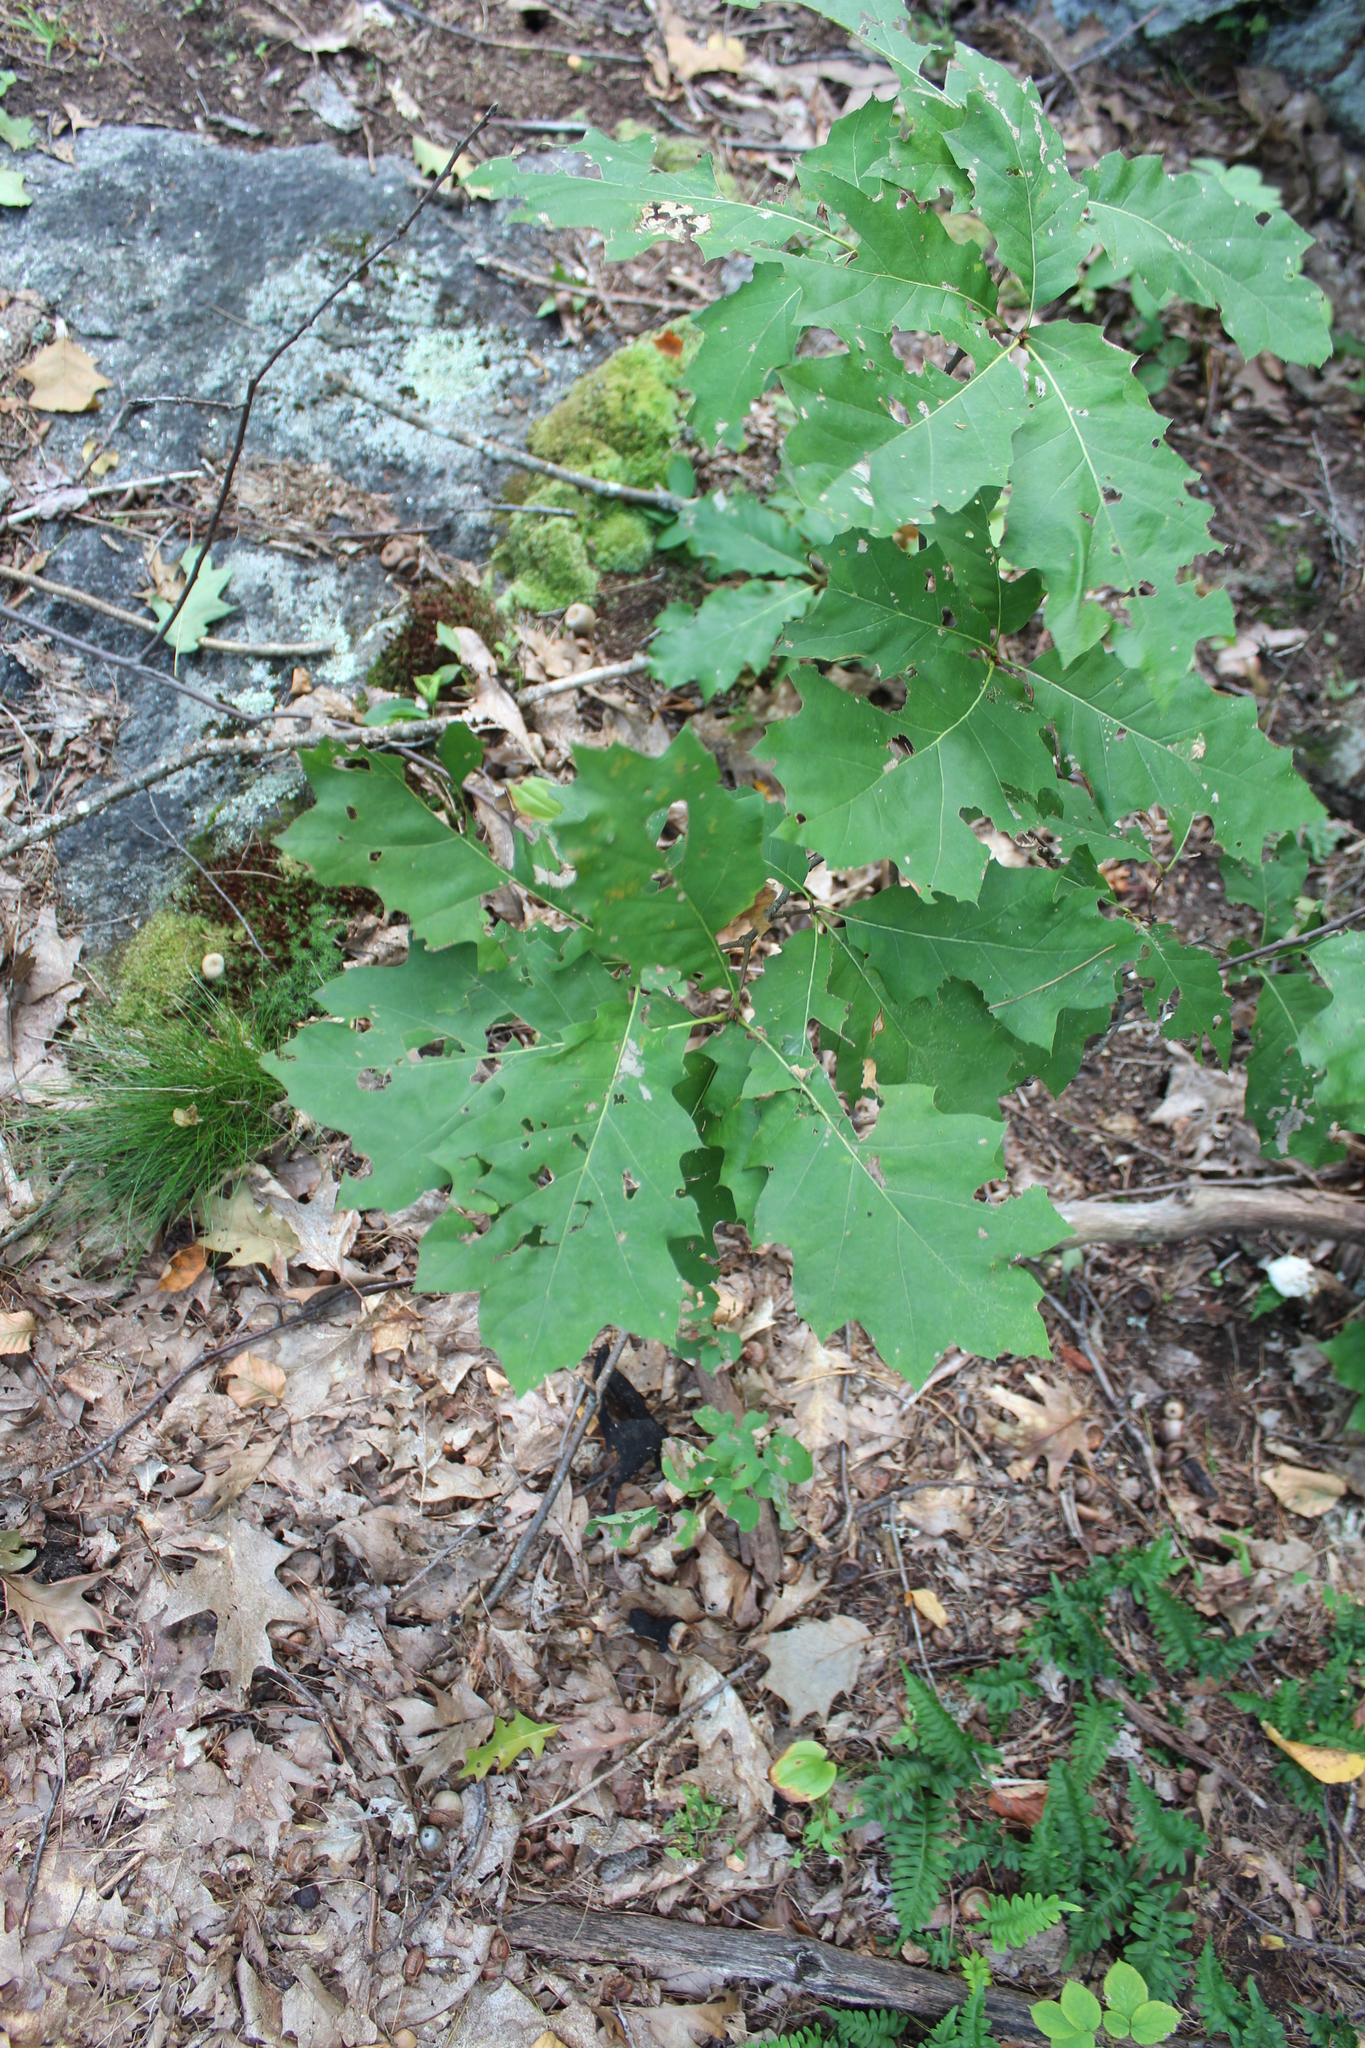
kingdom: Plantae
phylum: Tracheophyta
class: Magnoliopsida
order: Fagales
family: Fagaceae
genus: Quercus
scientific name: Quercus rubra
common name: Red oak
